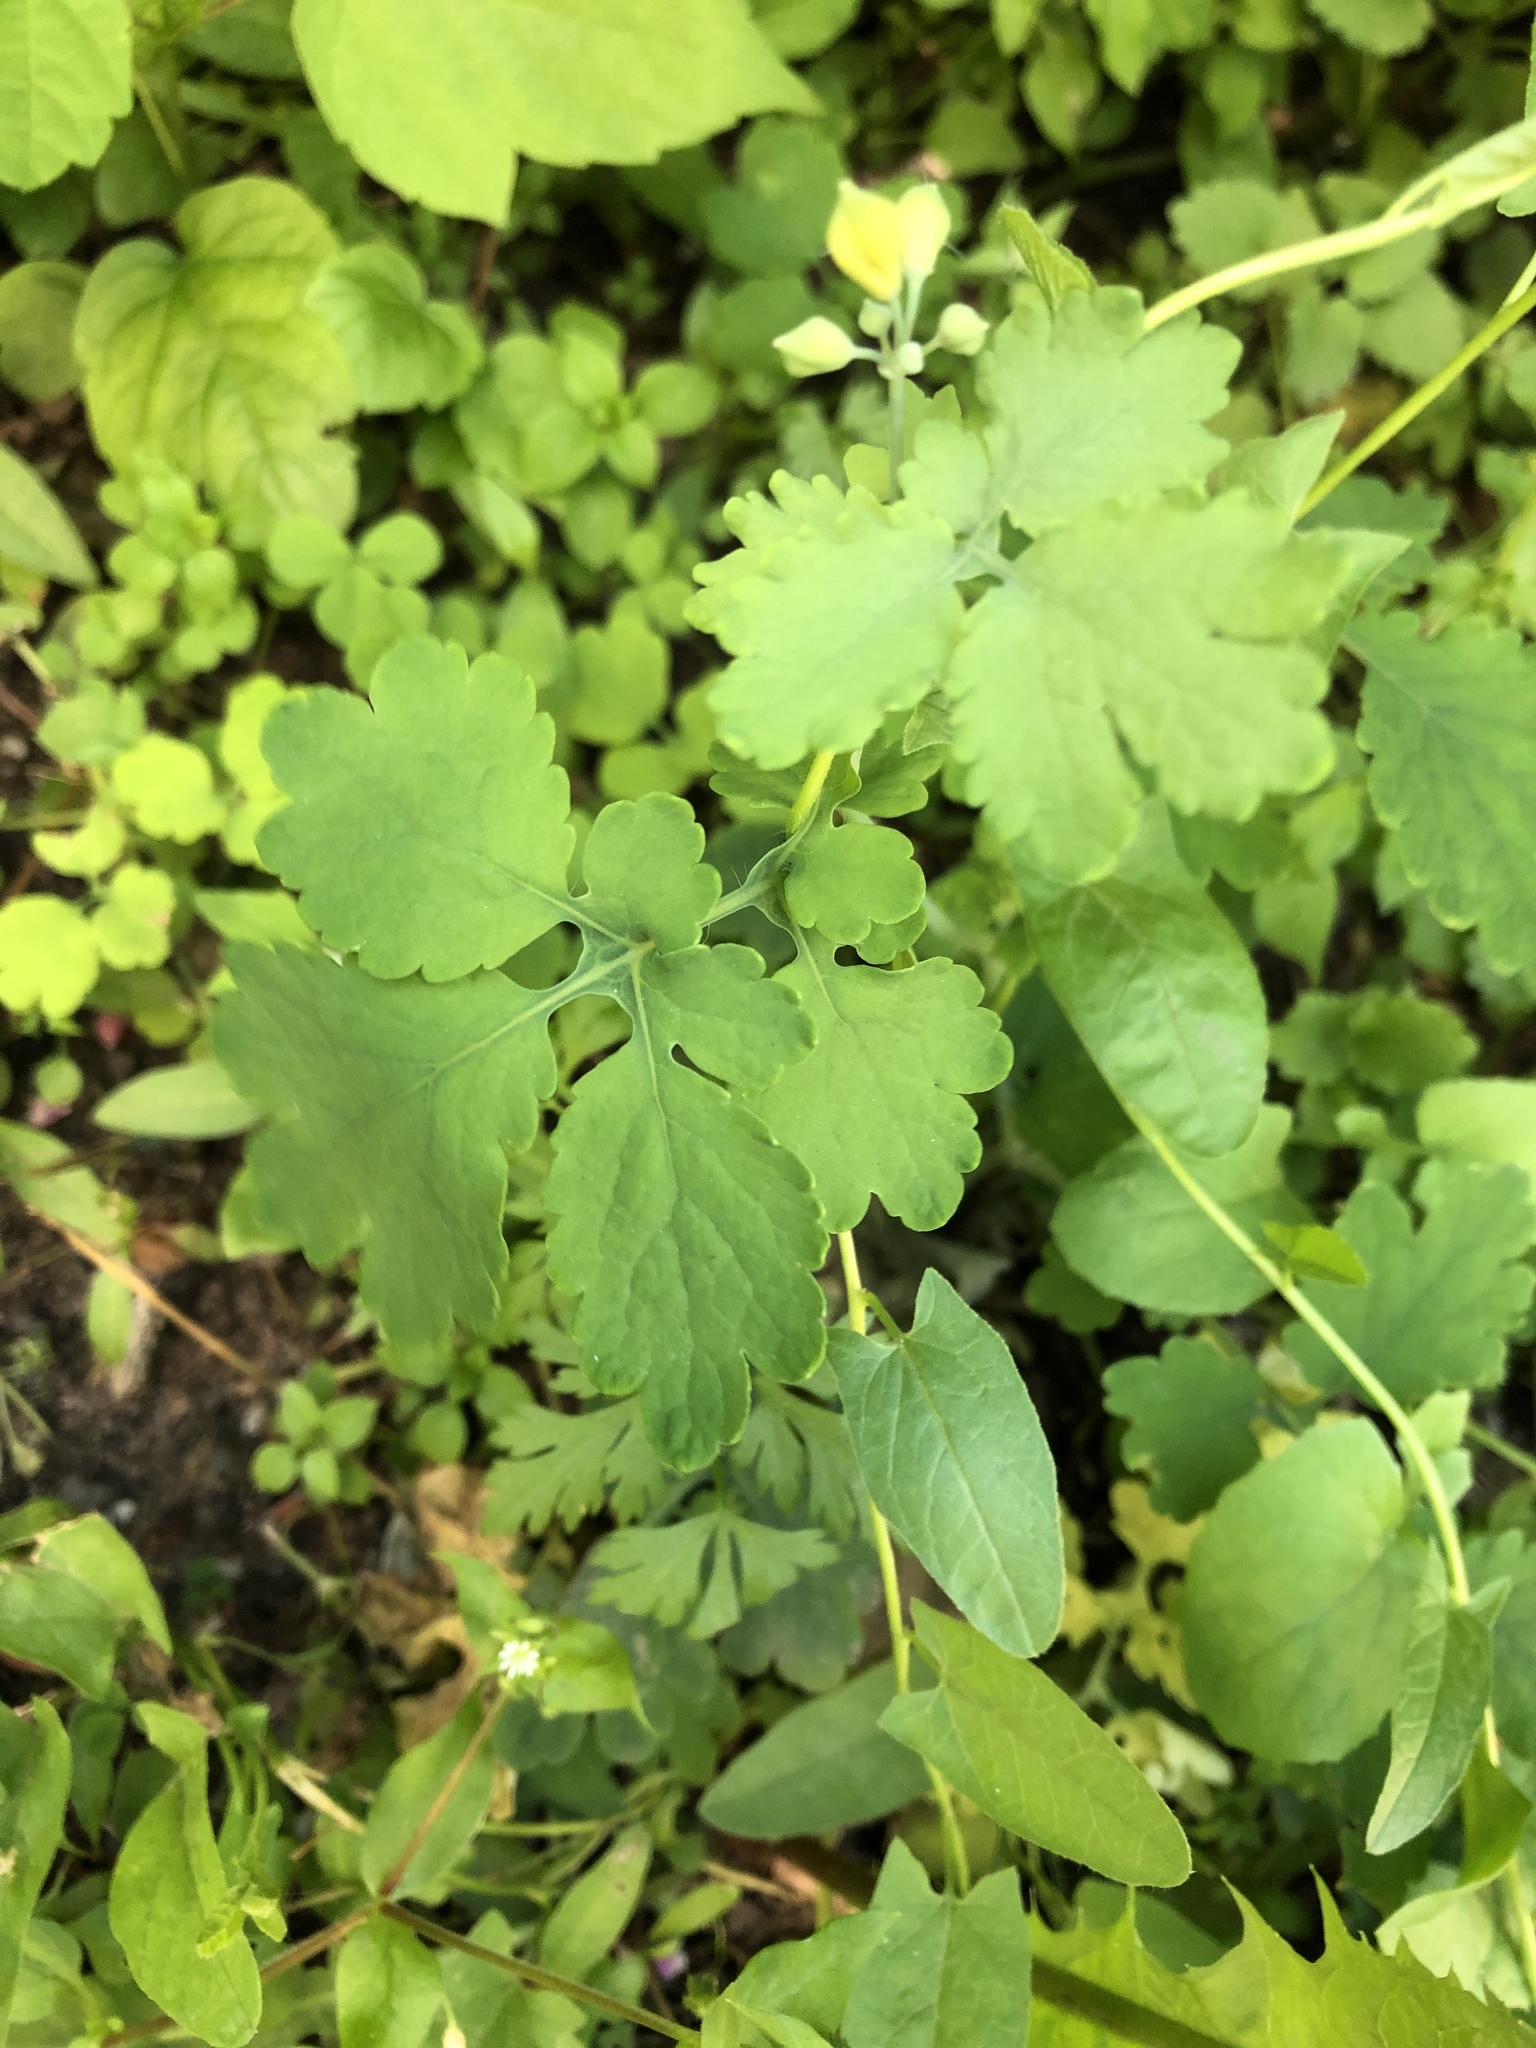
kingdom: Plantae
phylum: Tracheophyta
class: Magnoliopsida
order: Ranunculales
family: Papaveraceae
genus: Chelidonium
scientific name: Chelidonium majus
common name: Greater celandine
